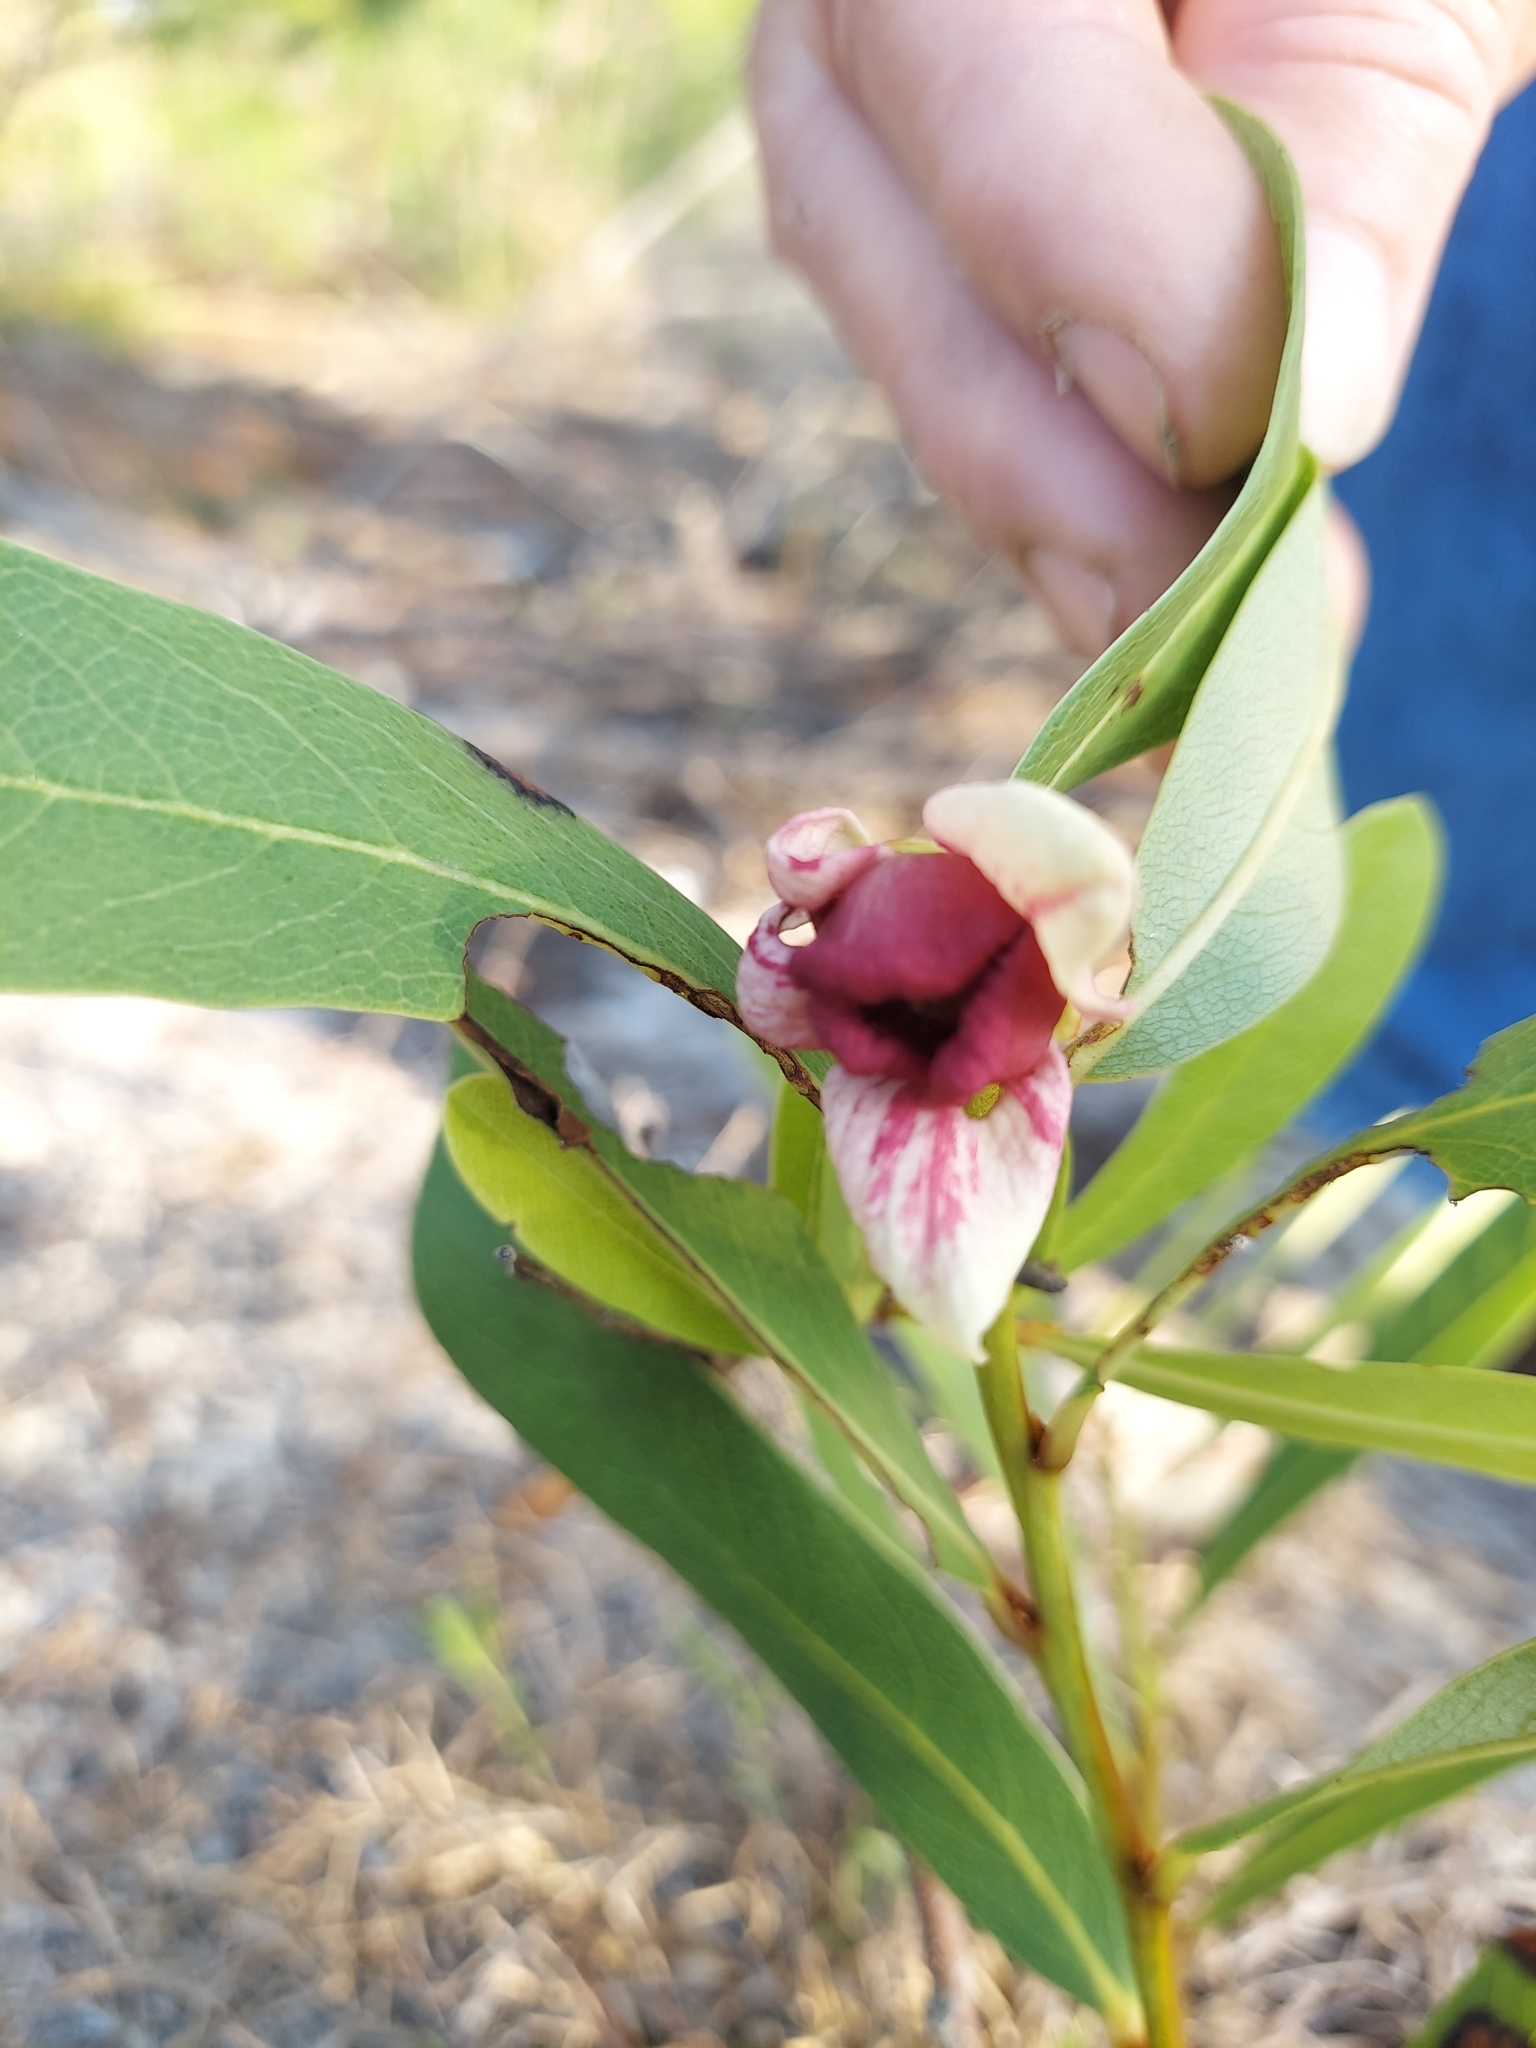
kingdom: Plantae
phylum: Tracheophyta
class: Magnoliopsida
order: Magnoliales
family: Annonaceae
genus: Asimina
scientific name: Asimina pygmaea
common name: Dwarf pawpaw
